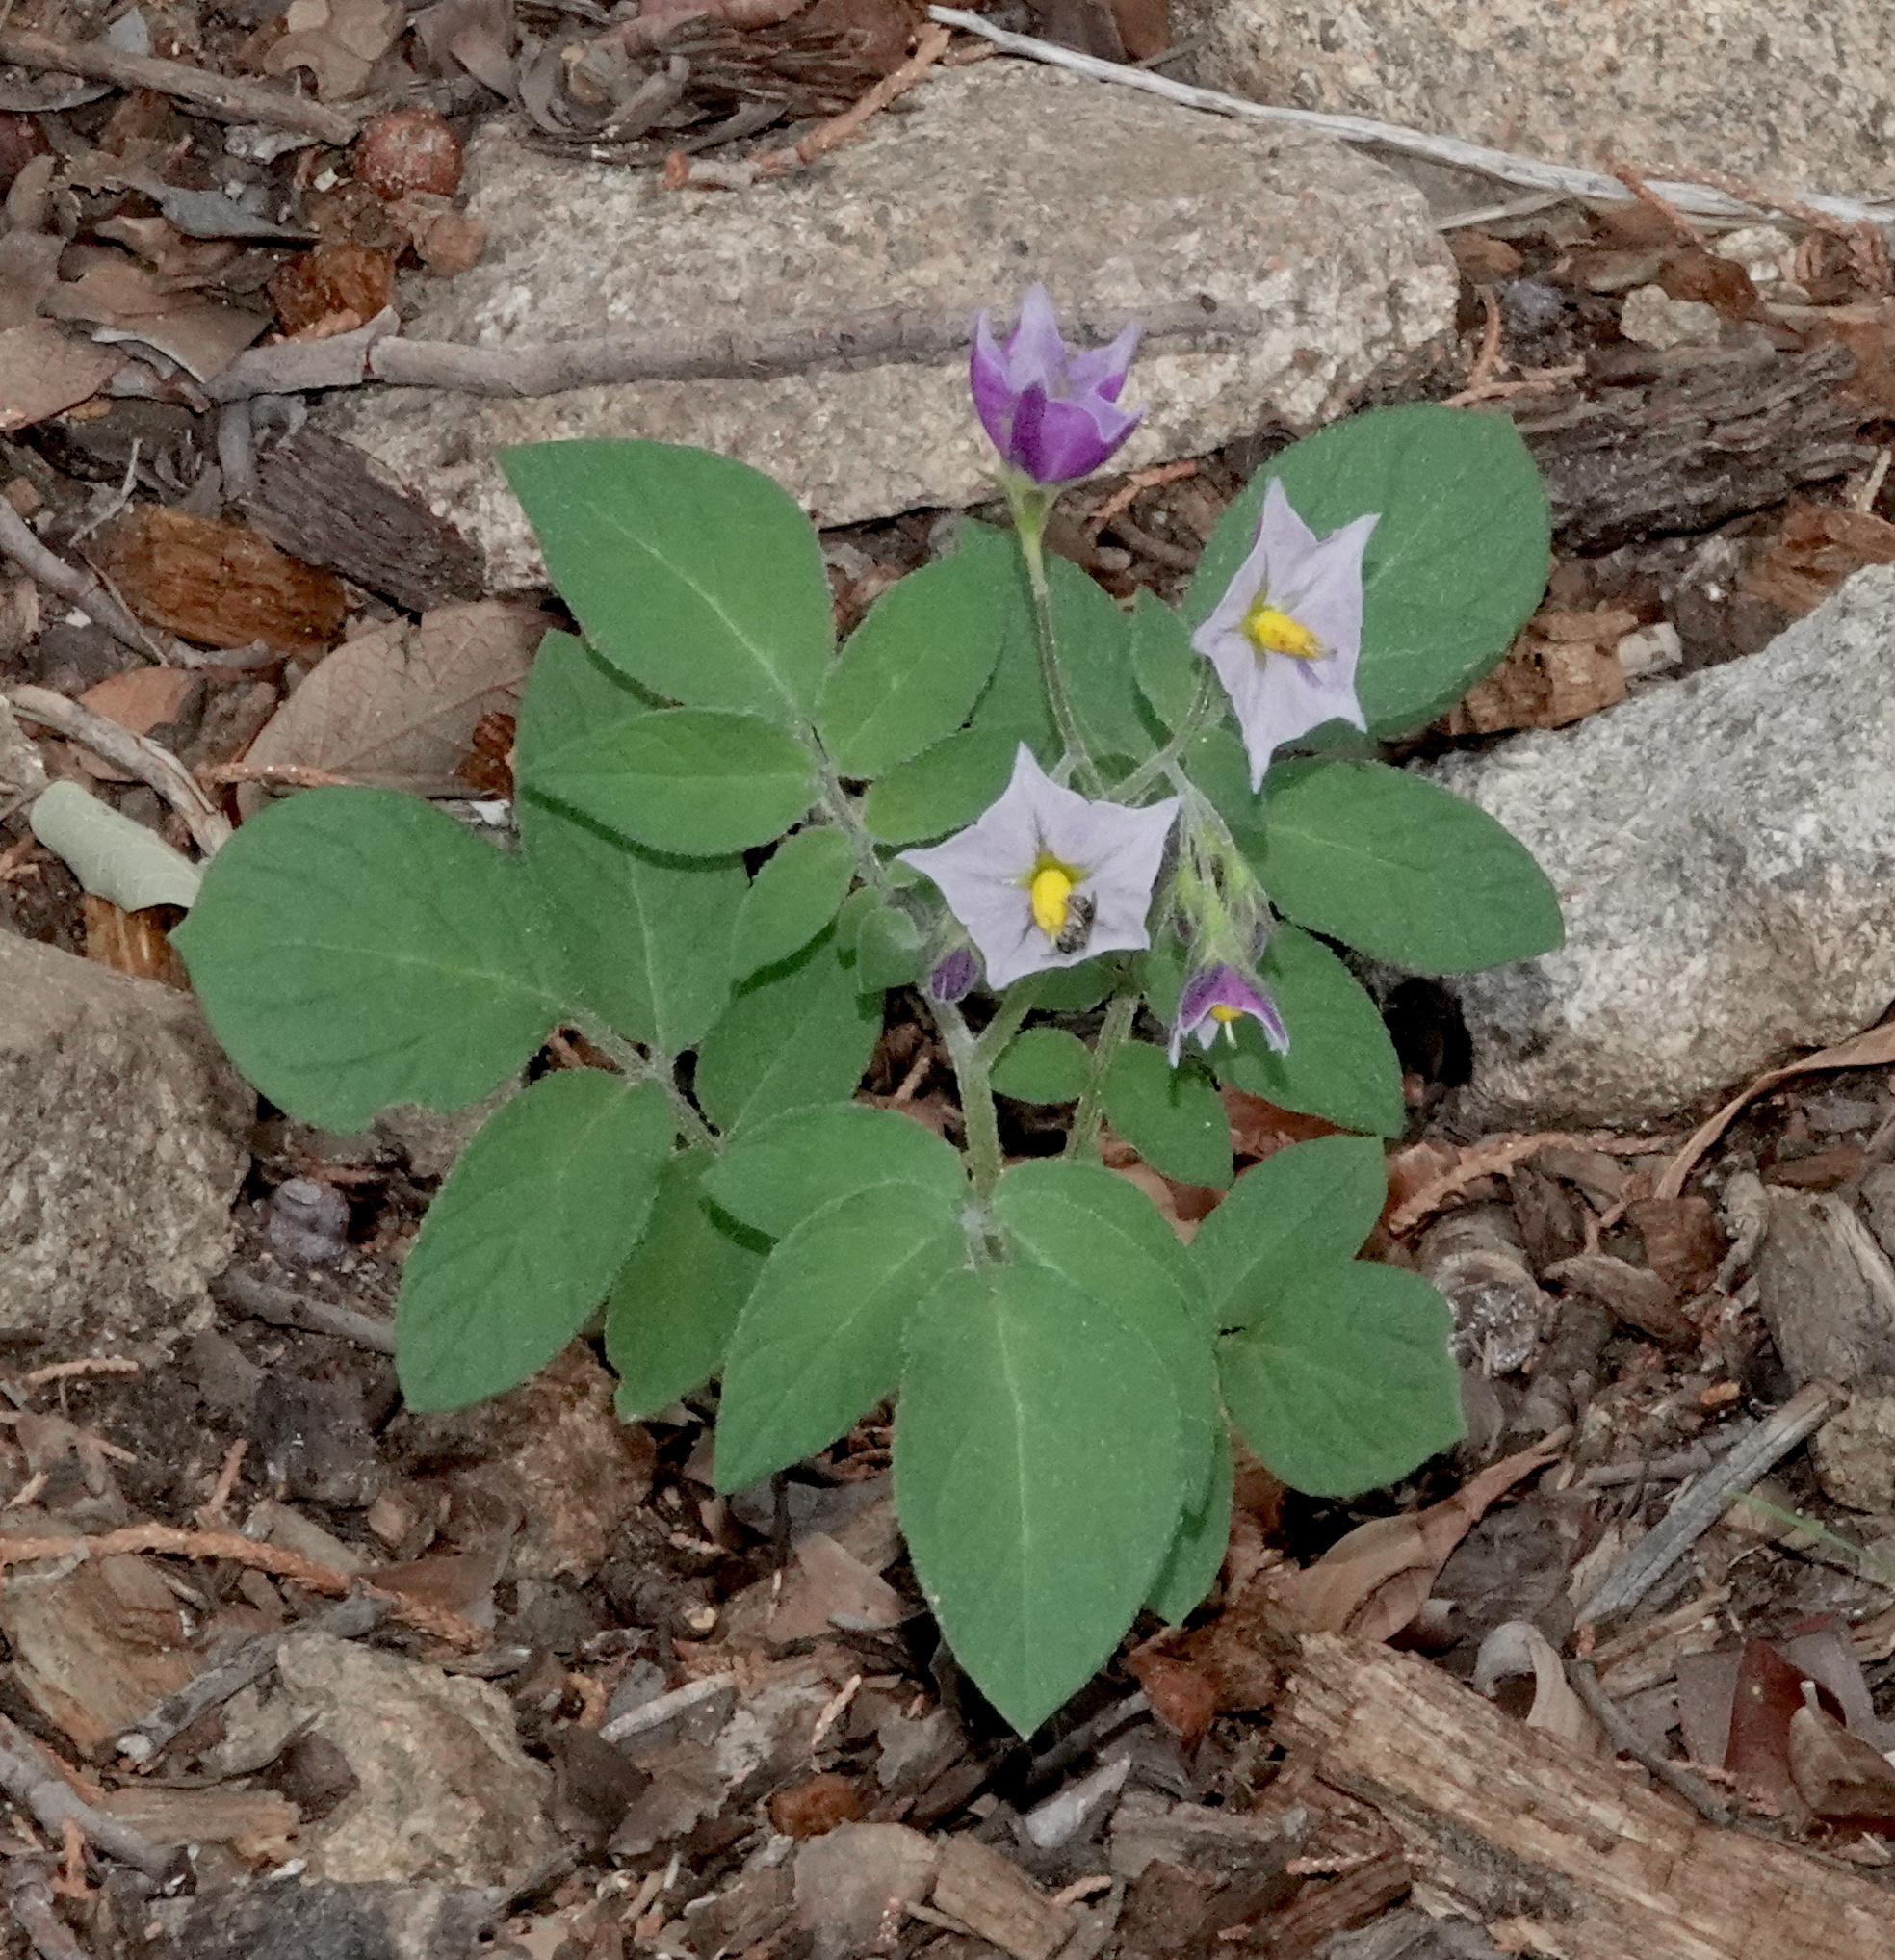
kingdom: Plantae
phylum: Tracheophyta
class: Magnoliopsida
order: Solanales
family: Solanaceae
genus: Solanum
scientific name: Solanum stoloniferum
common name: Fendler's nighshade
